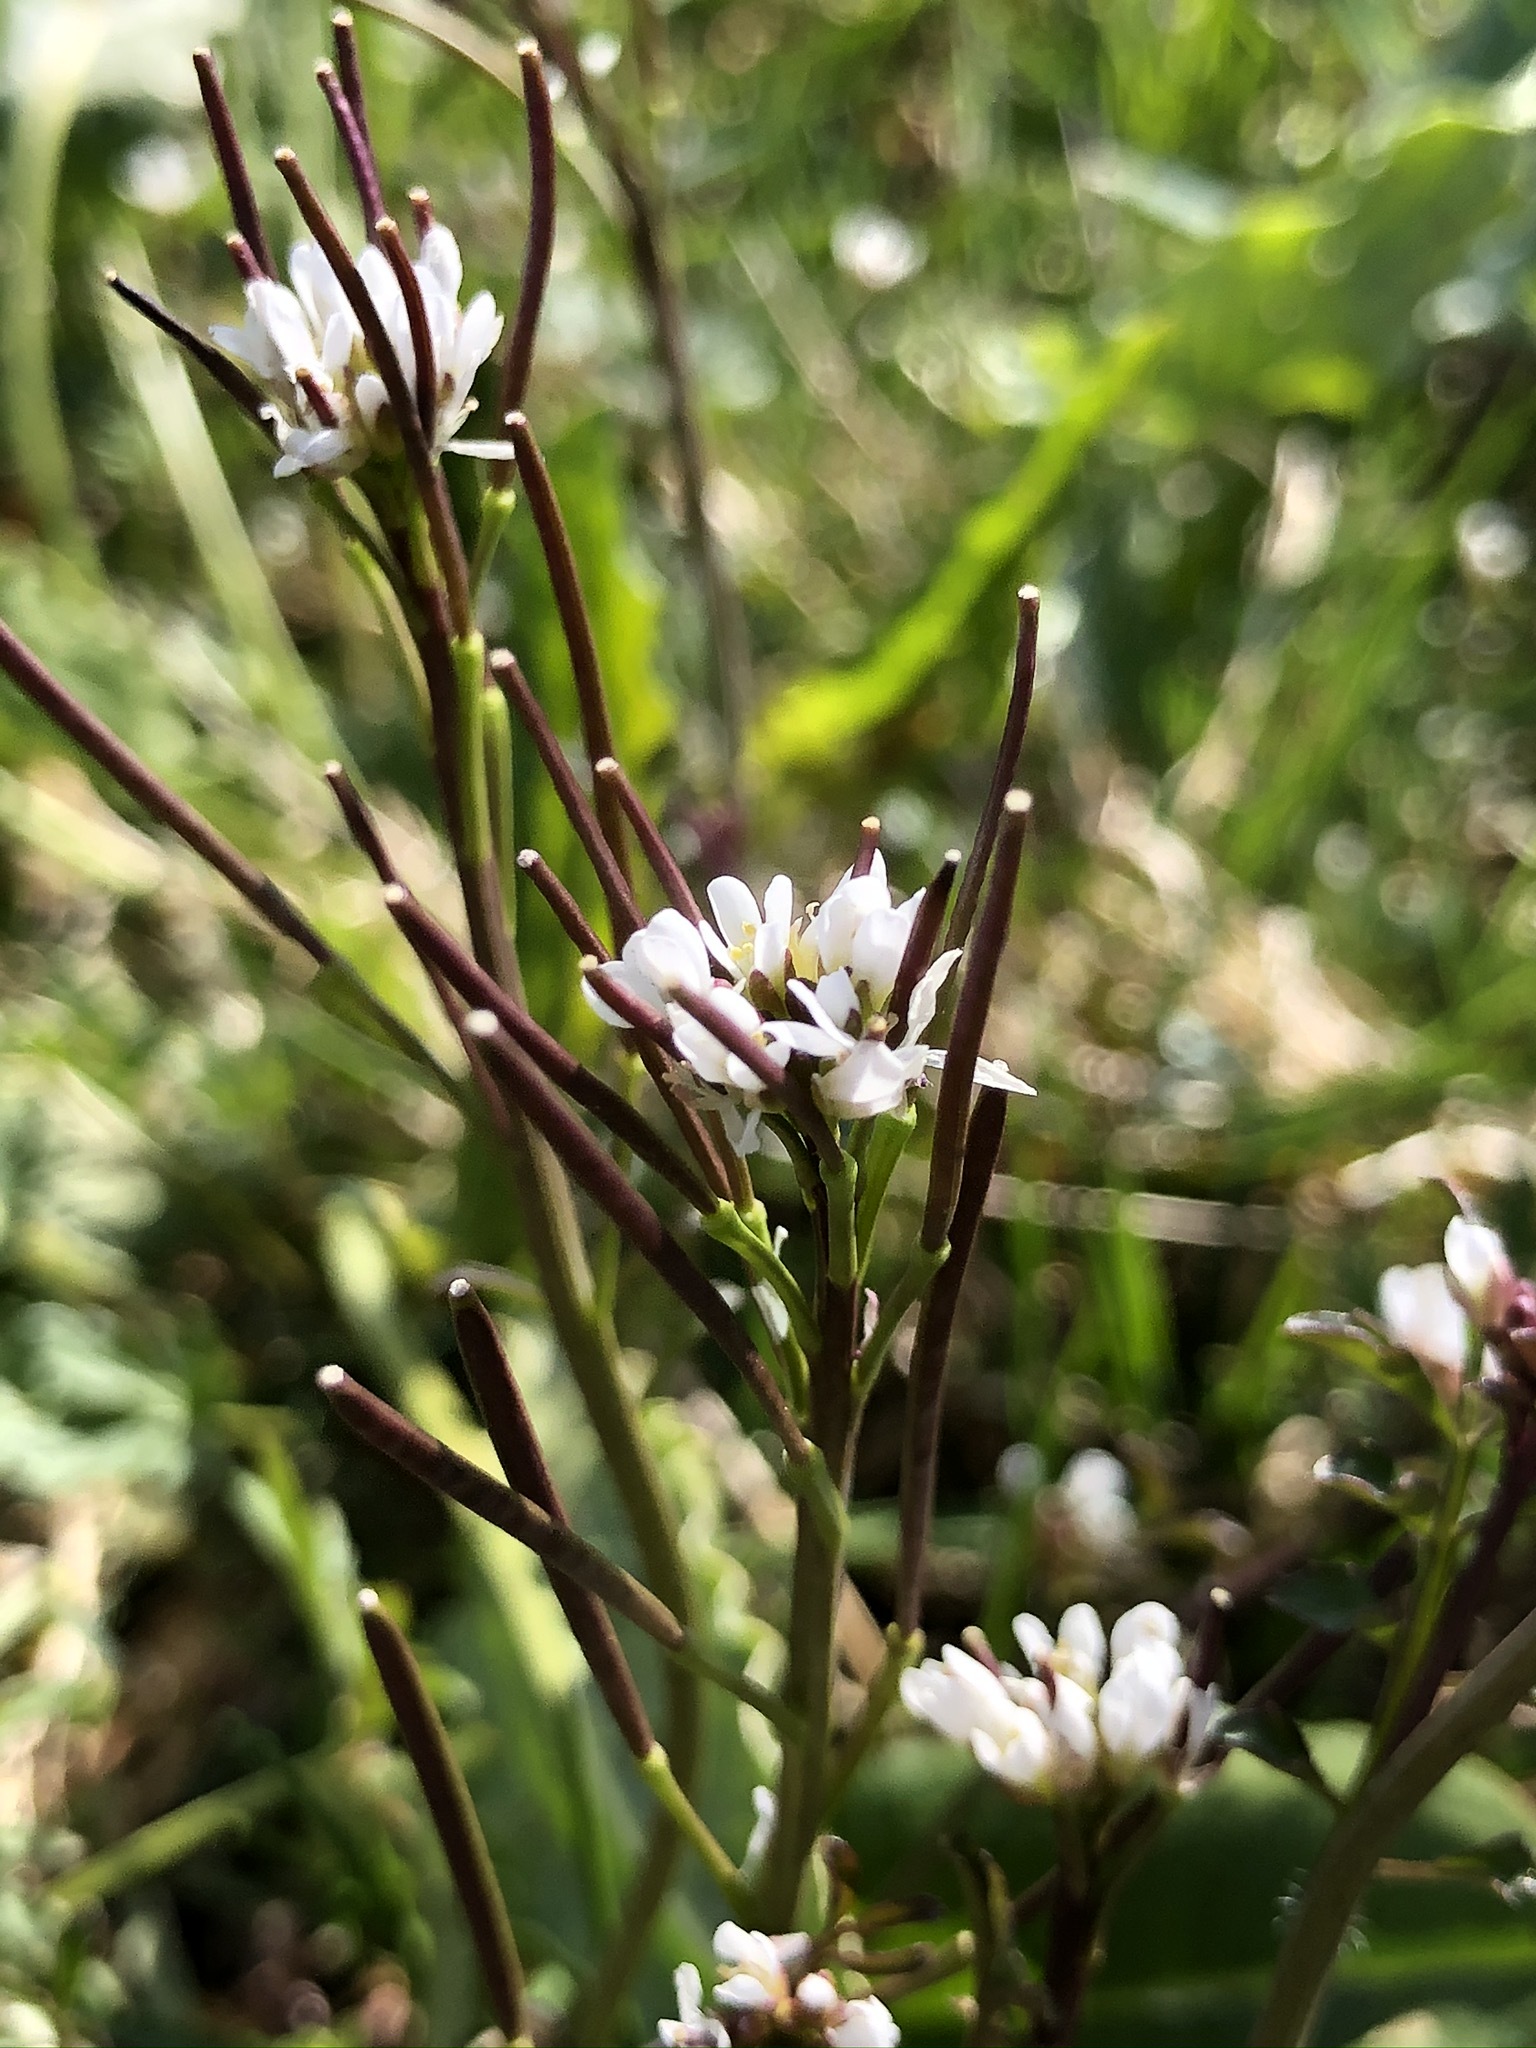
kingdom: Plantae
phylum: Tracheophyta
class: Magnoliopsida
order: Brassicales
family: Brassicaceae
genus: Cardamine
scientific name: Cardamine hirsuta
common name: Hairy bittercress
